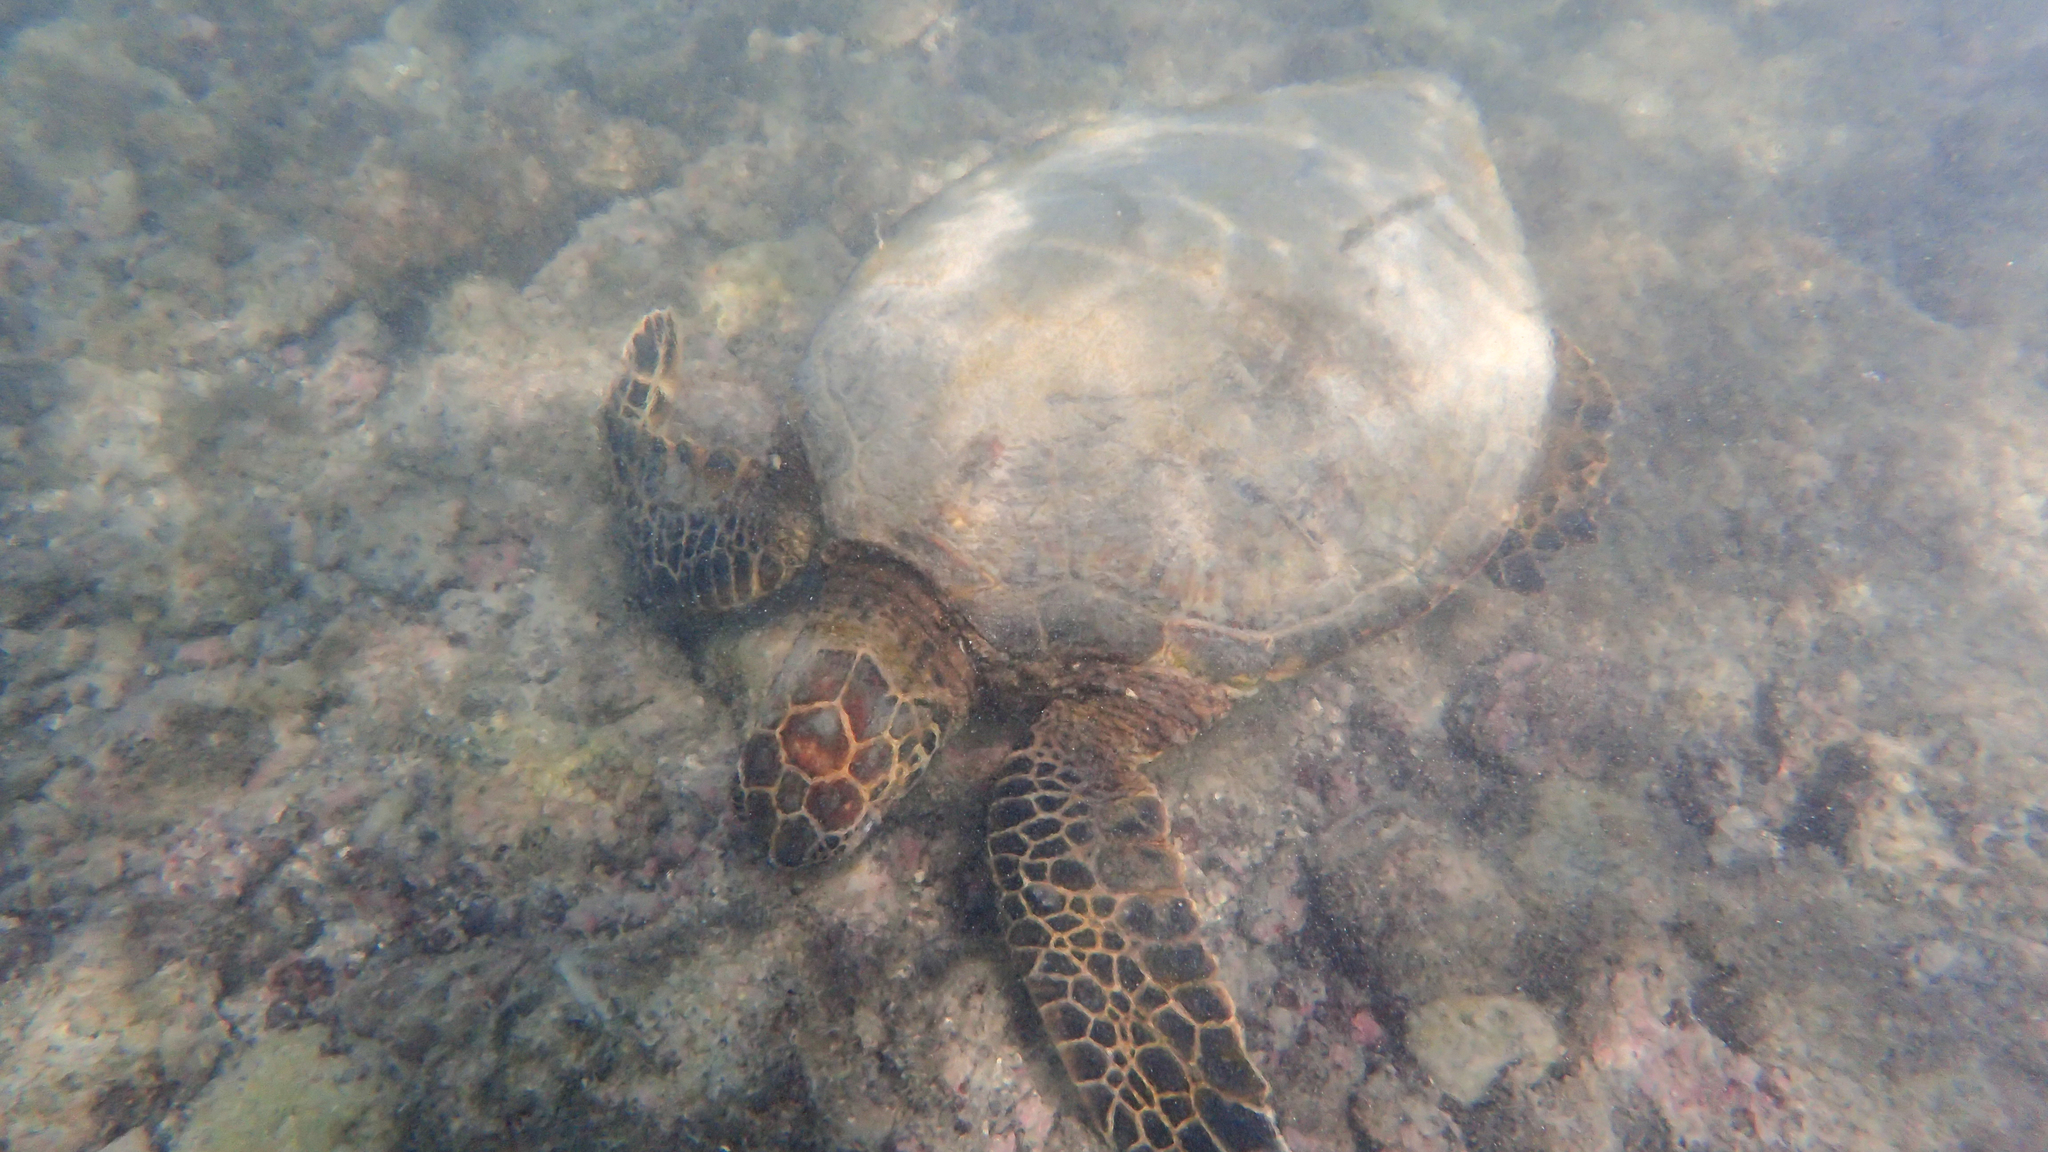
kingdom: Animalia
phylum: Chordata
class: Testudines
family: Cheloniidae
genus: Chelonia
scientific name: Chelonia mydas
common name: Green turtle
